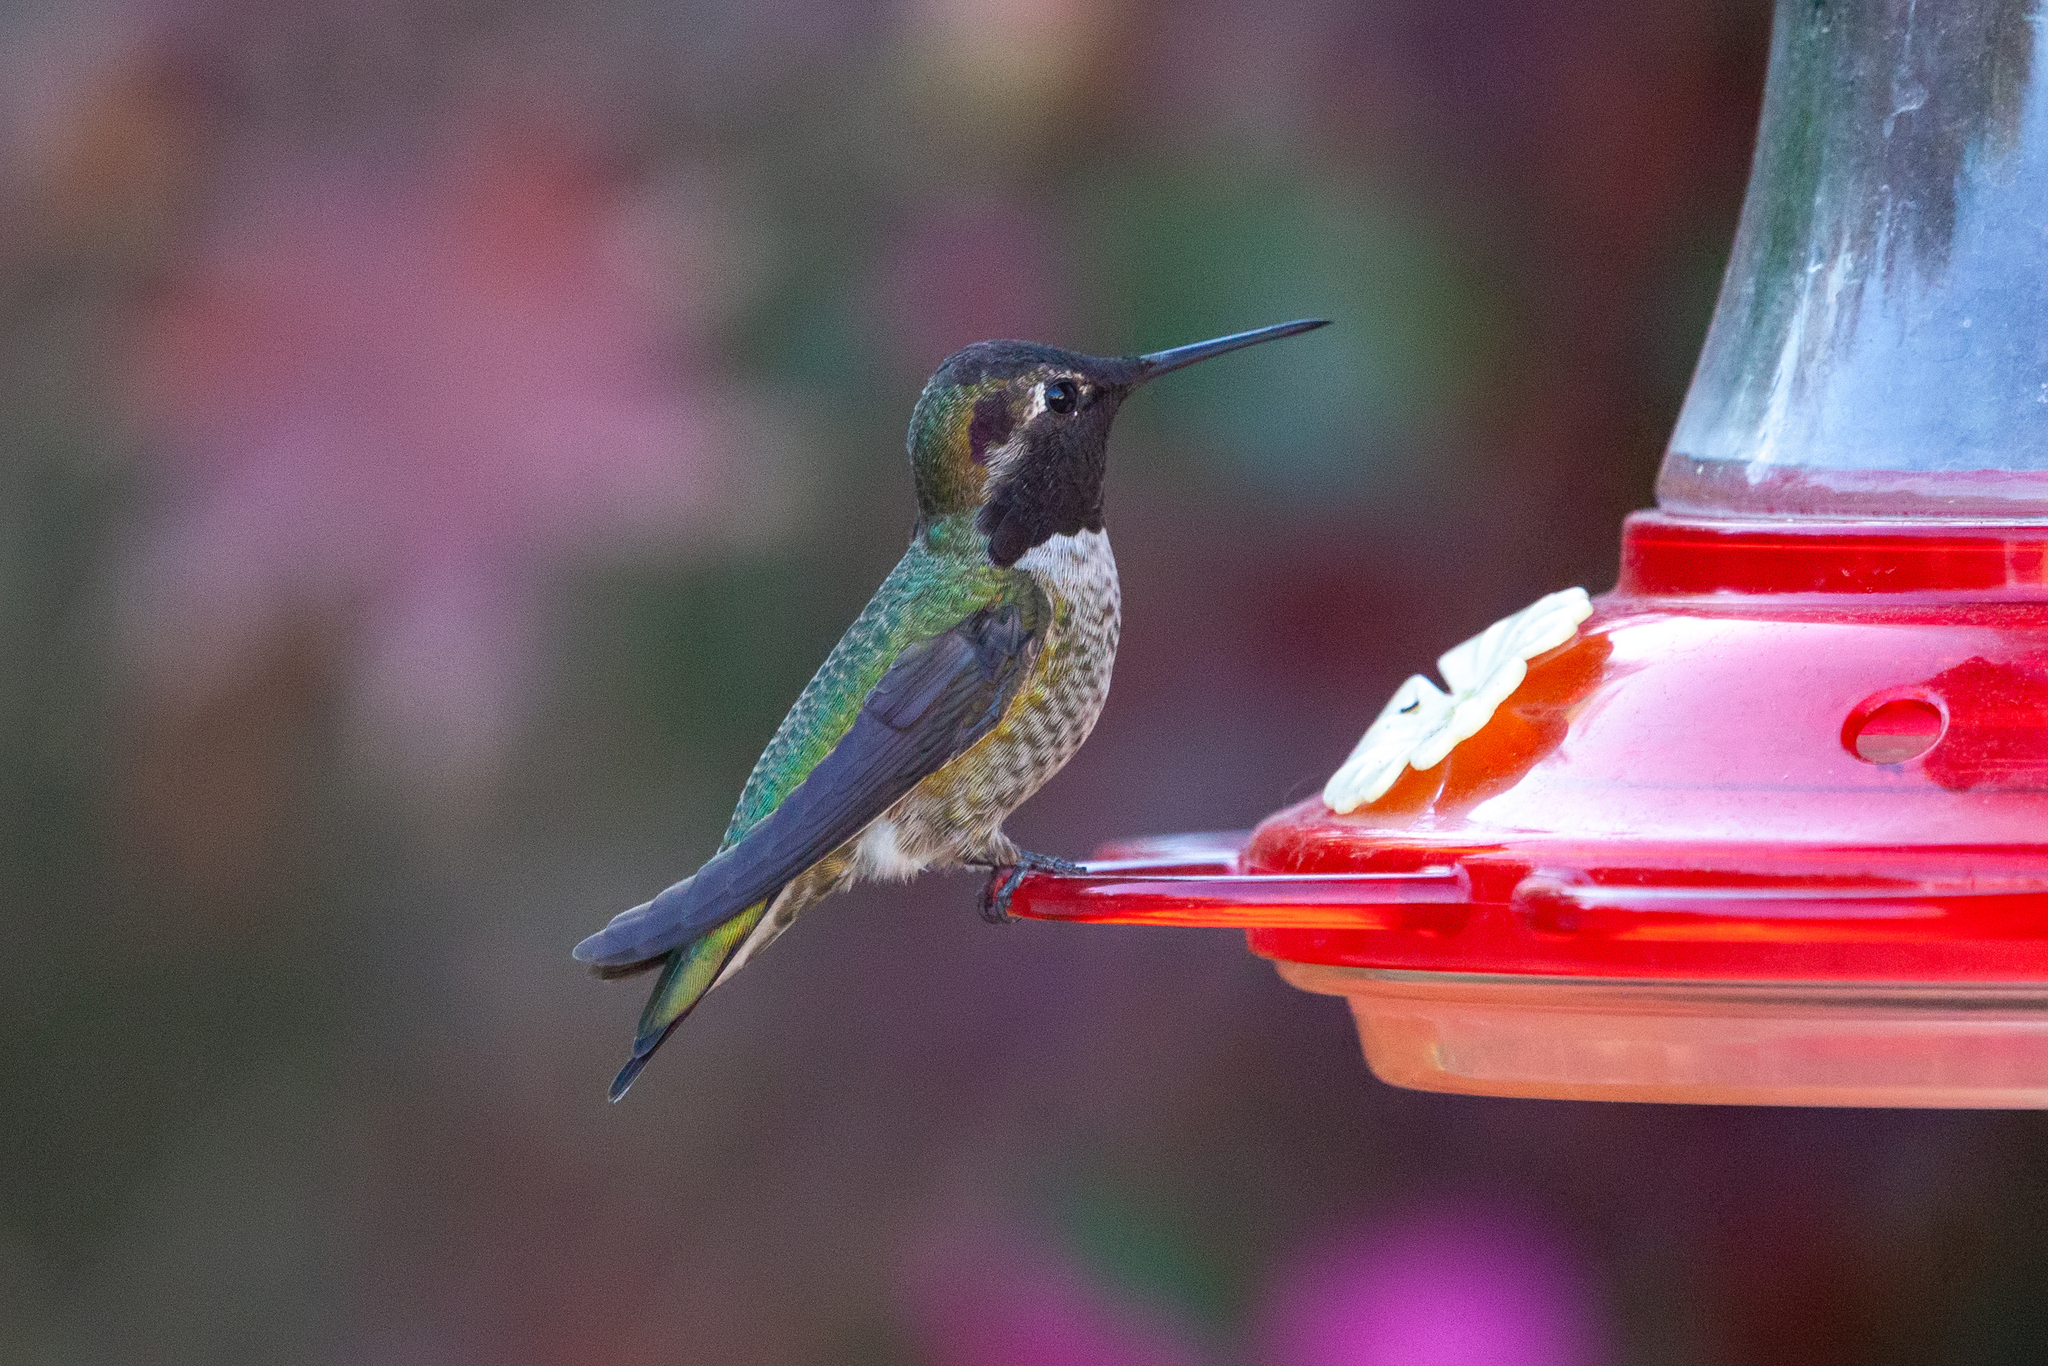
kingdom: Animalia
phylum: Chordata
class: Aves
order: Apodiformes
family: Trochilidae
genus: Calypte
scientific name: Calypte anna
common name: Anna's hummingbird
